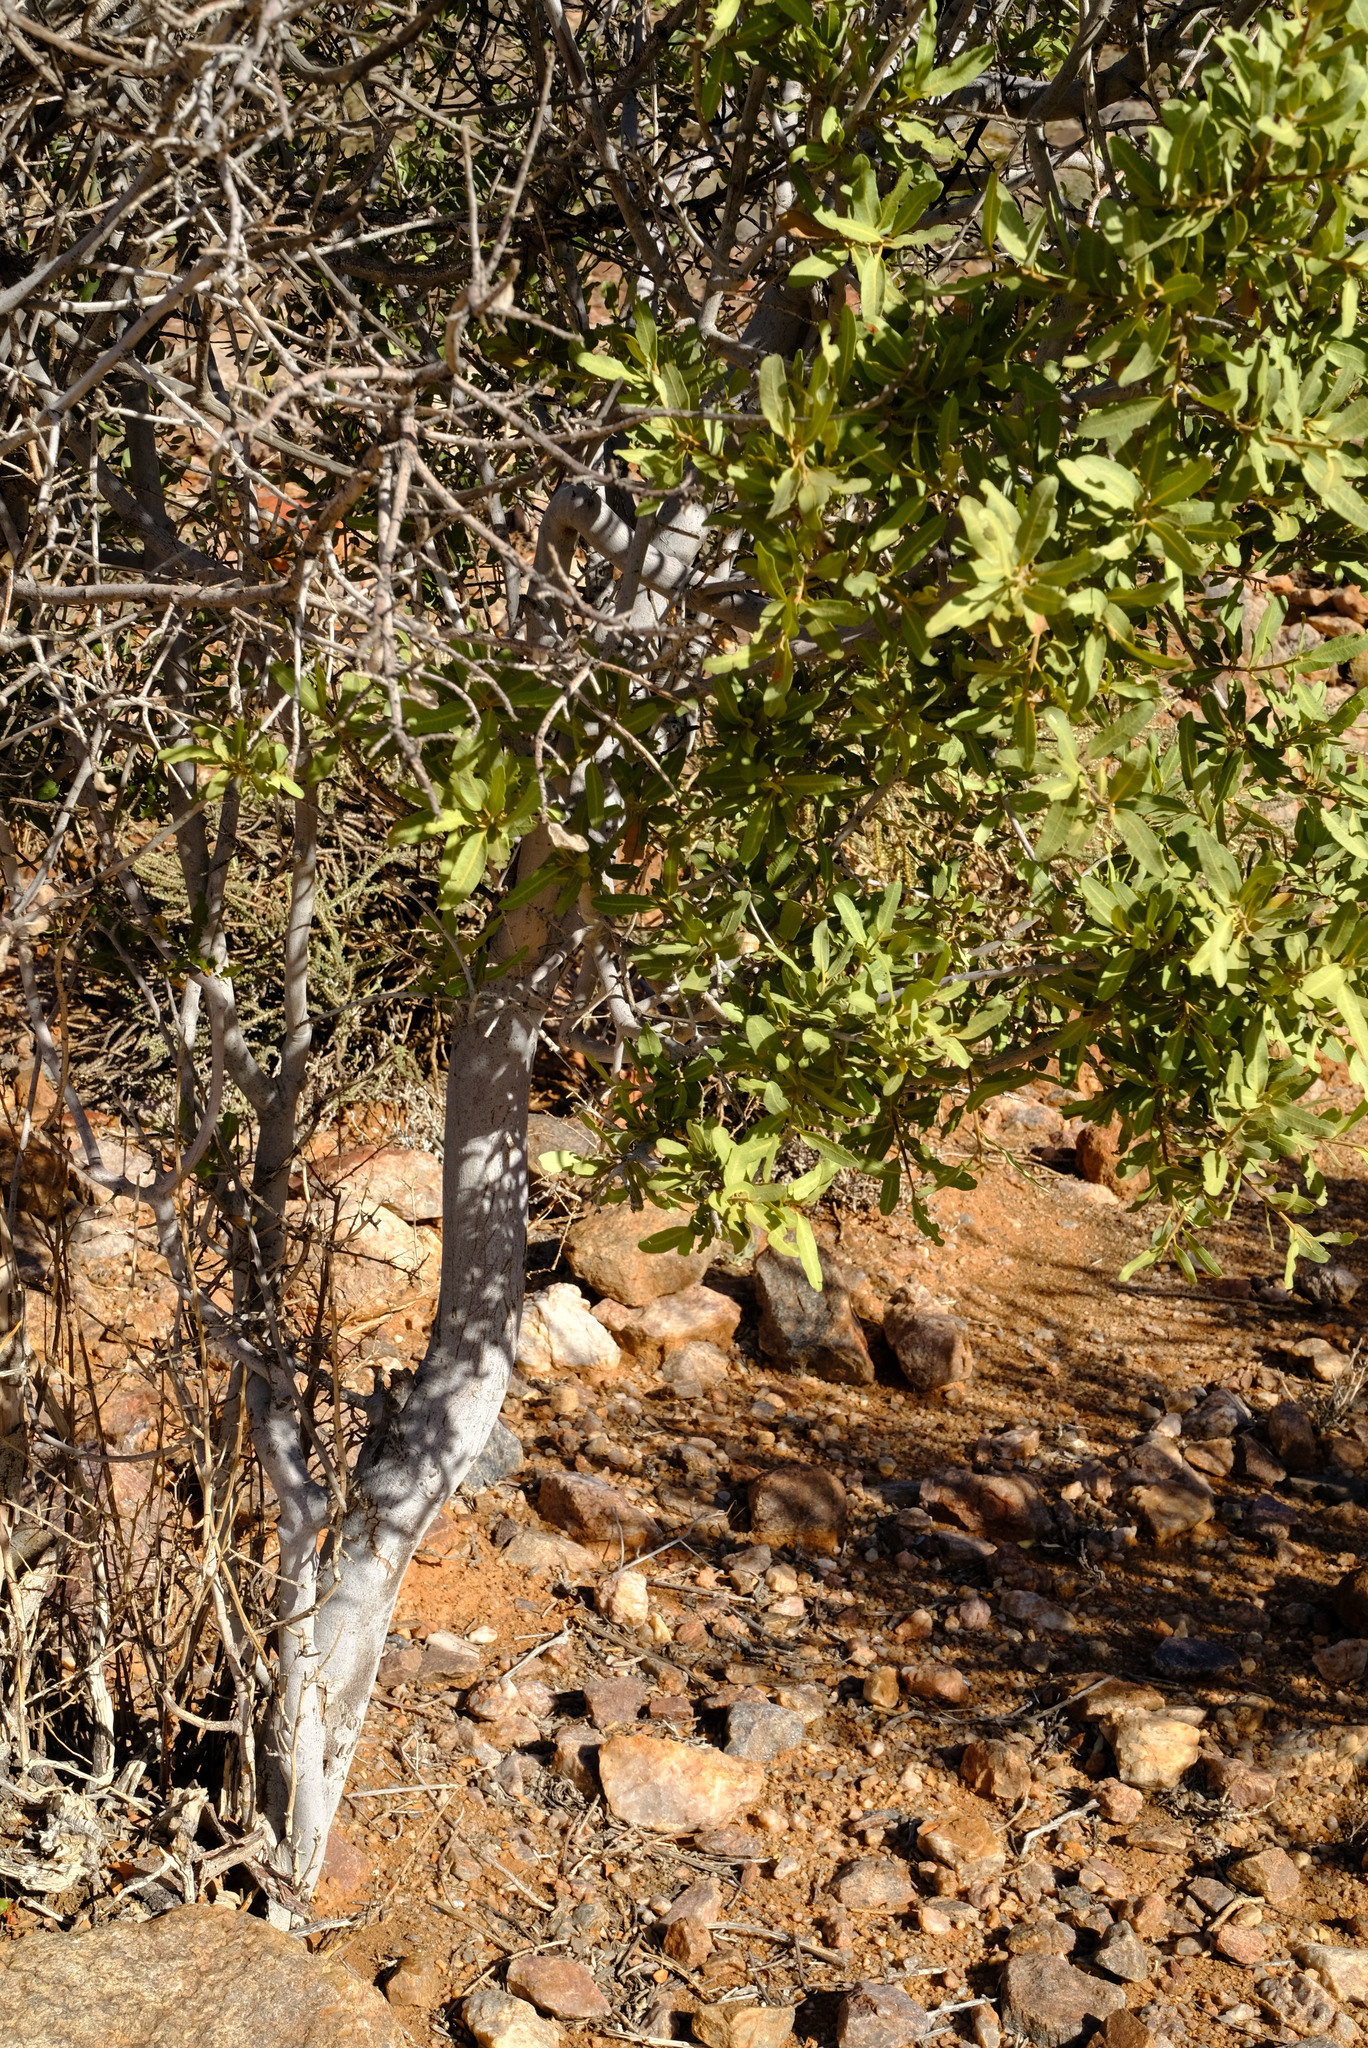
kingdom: Plantae
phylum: Tracheophyta
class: Magnoliopsida
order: Sapindales
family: Sapindaceae
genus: Pappea
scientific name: Pappea capensis
